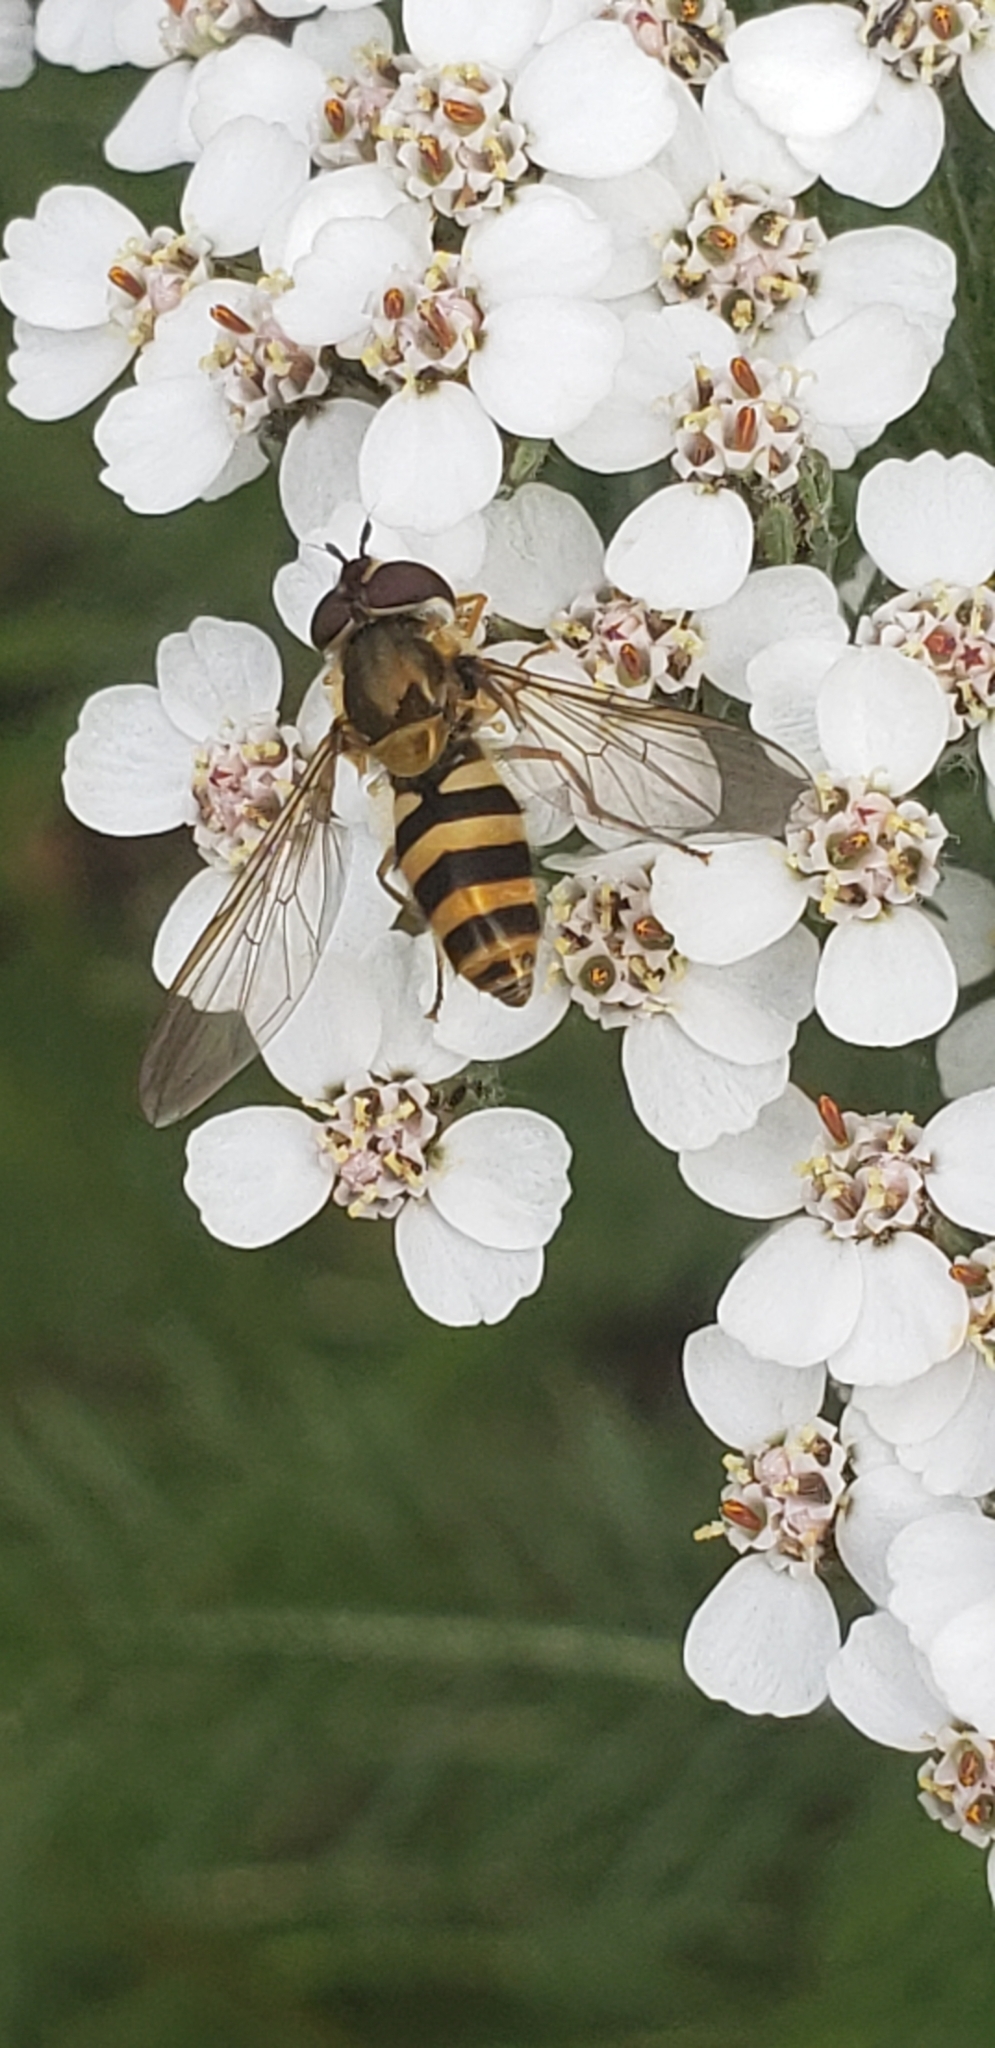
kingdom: Animalia
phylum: Arthropoda
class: Insecta
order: Diptera
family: Syrphidae
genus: Epistrophe
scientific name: Epistrophe grossulariae
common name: Black-horned smoothtail
